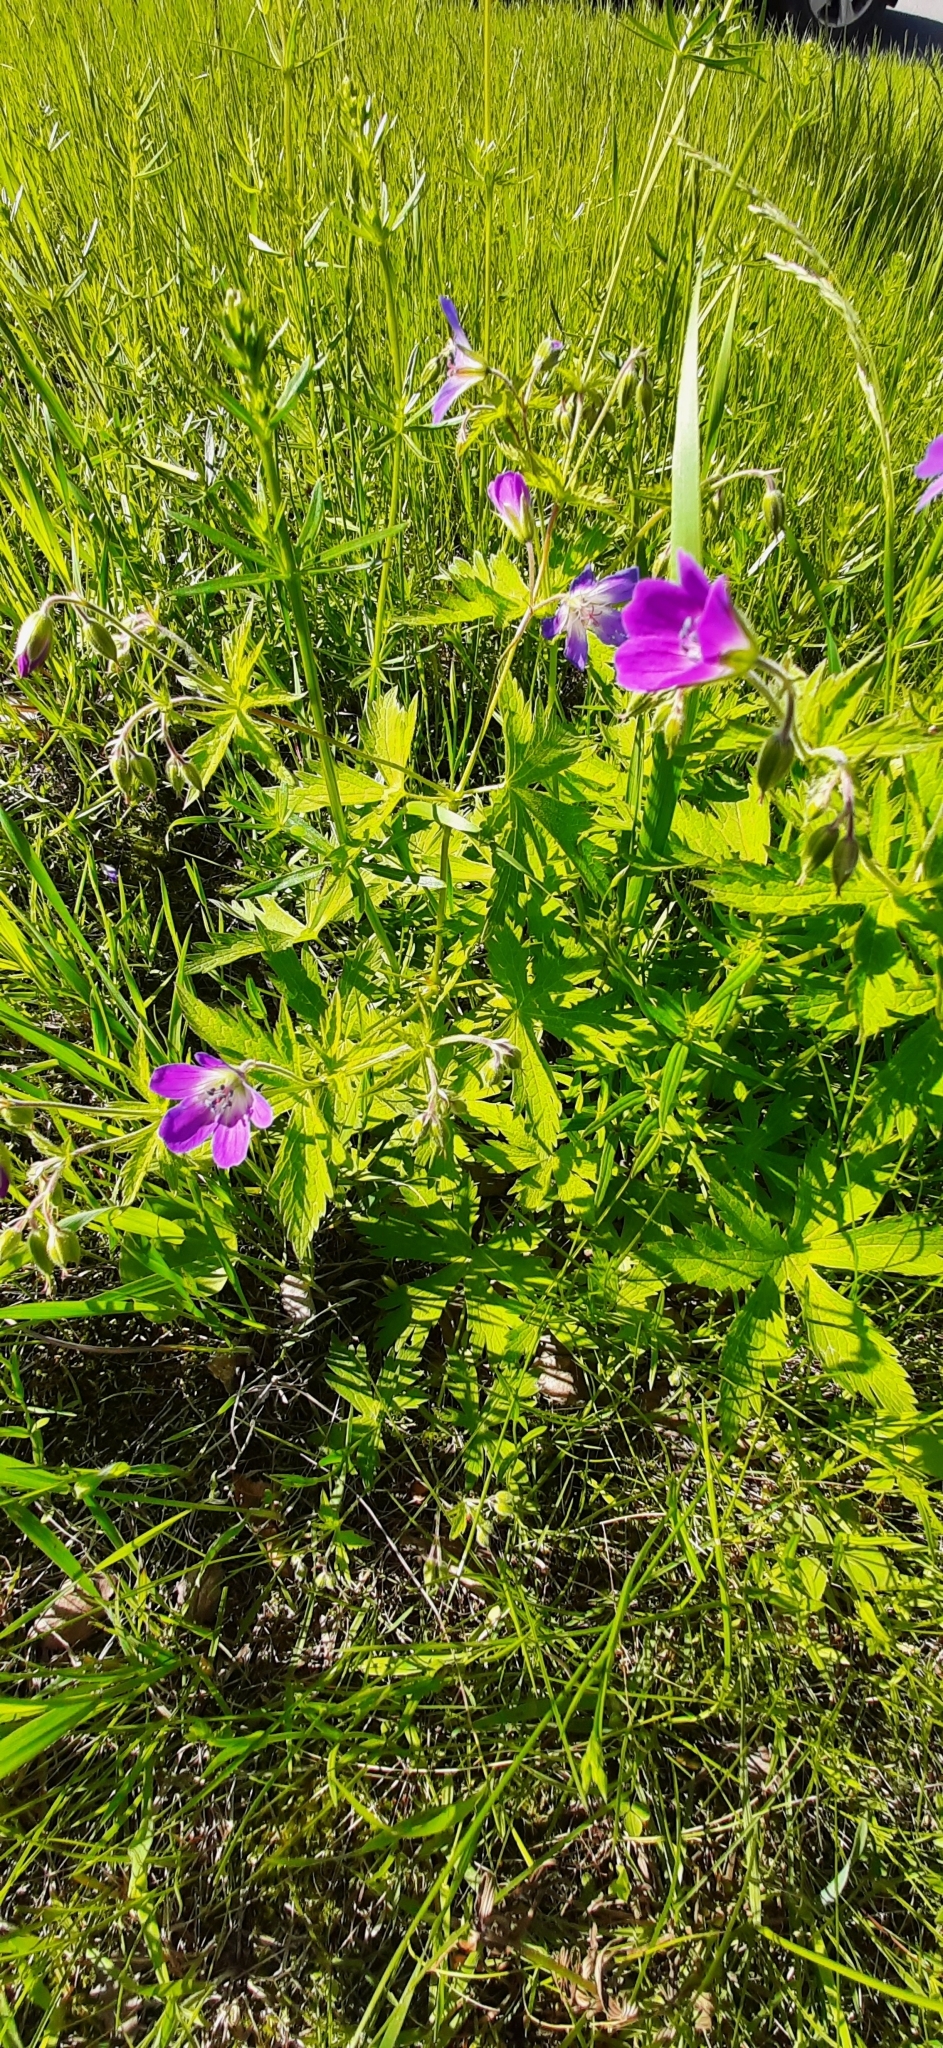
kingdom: Plantae
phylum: Tracheophyta
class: Magnoliopsida
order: Geraniales
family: Geraniaceae
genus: Geranium
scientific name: Geranium sylvaticum
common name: Wood crane's-bill
